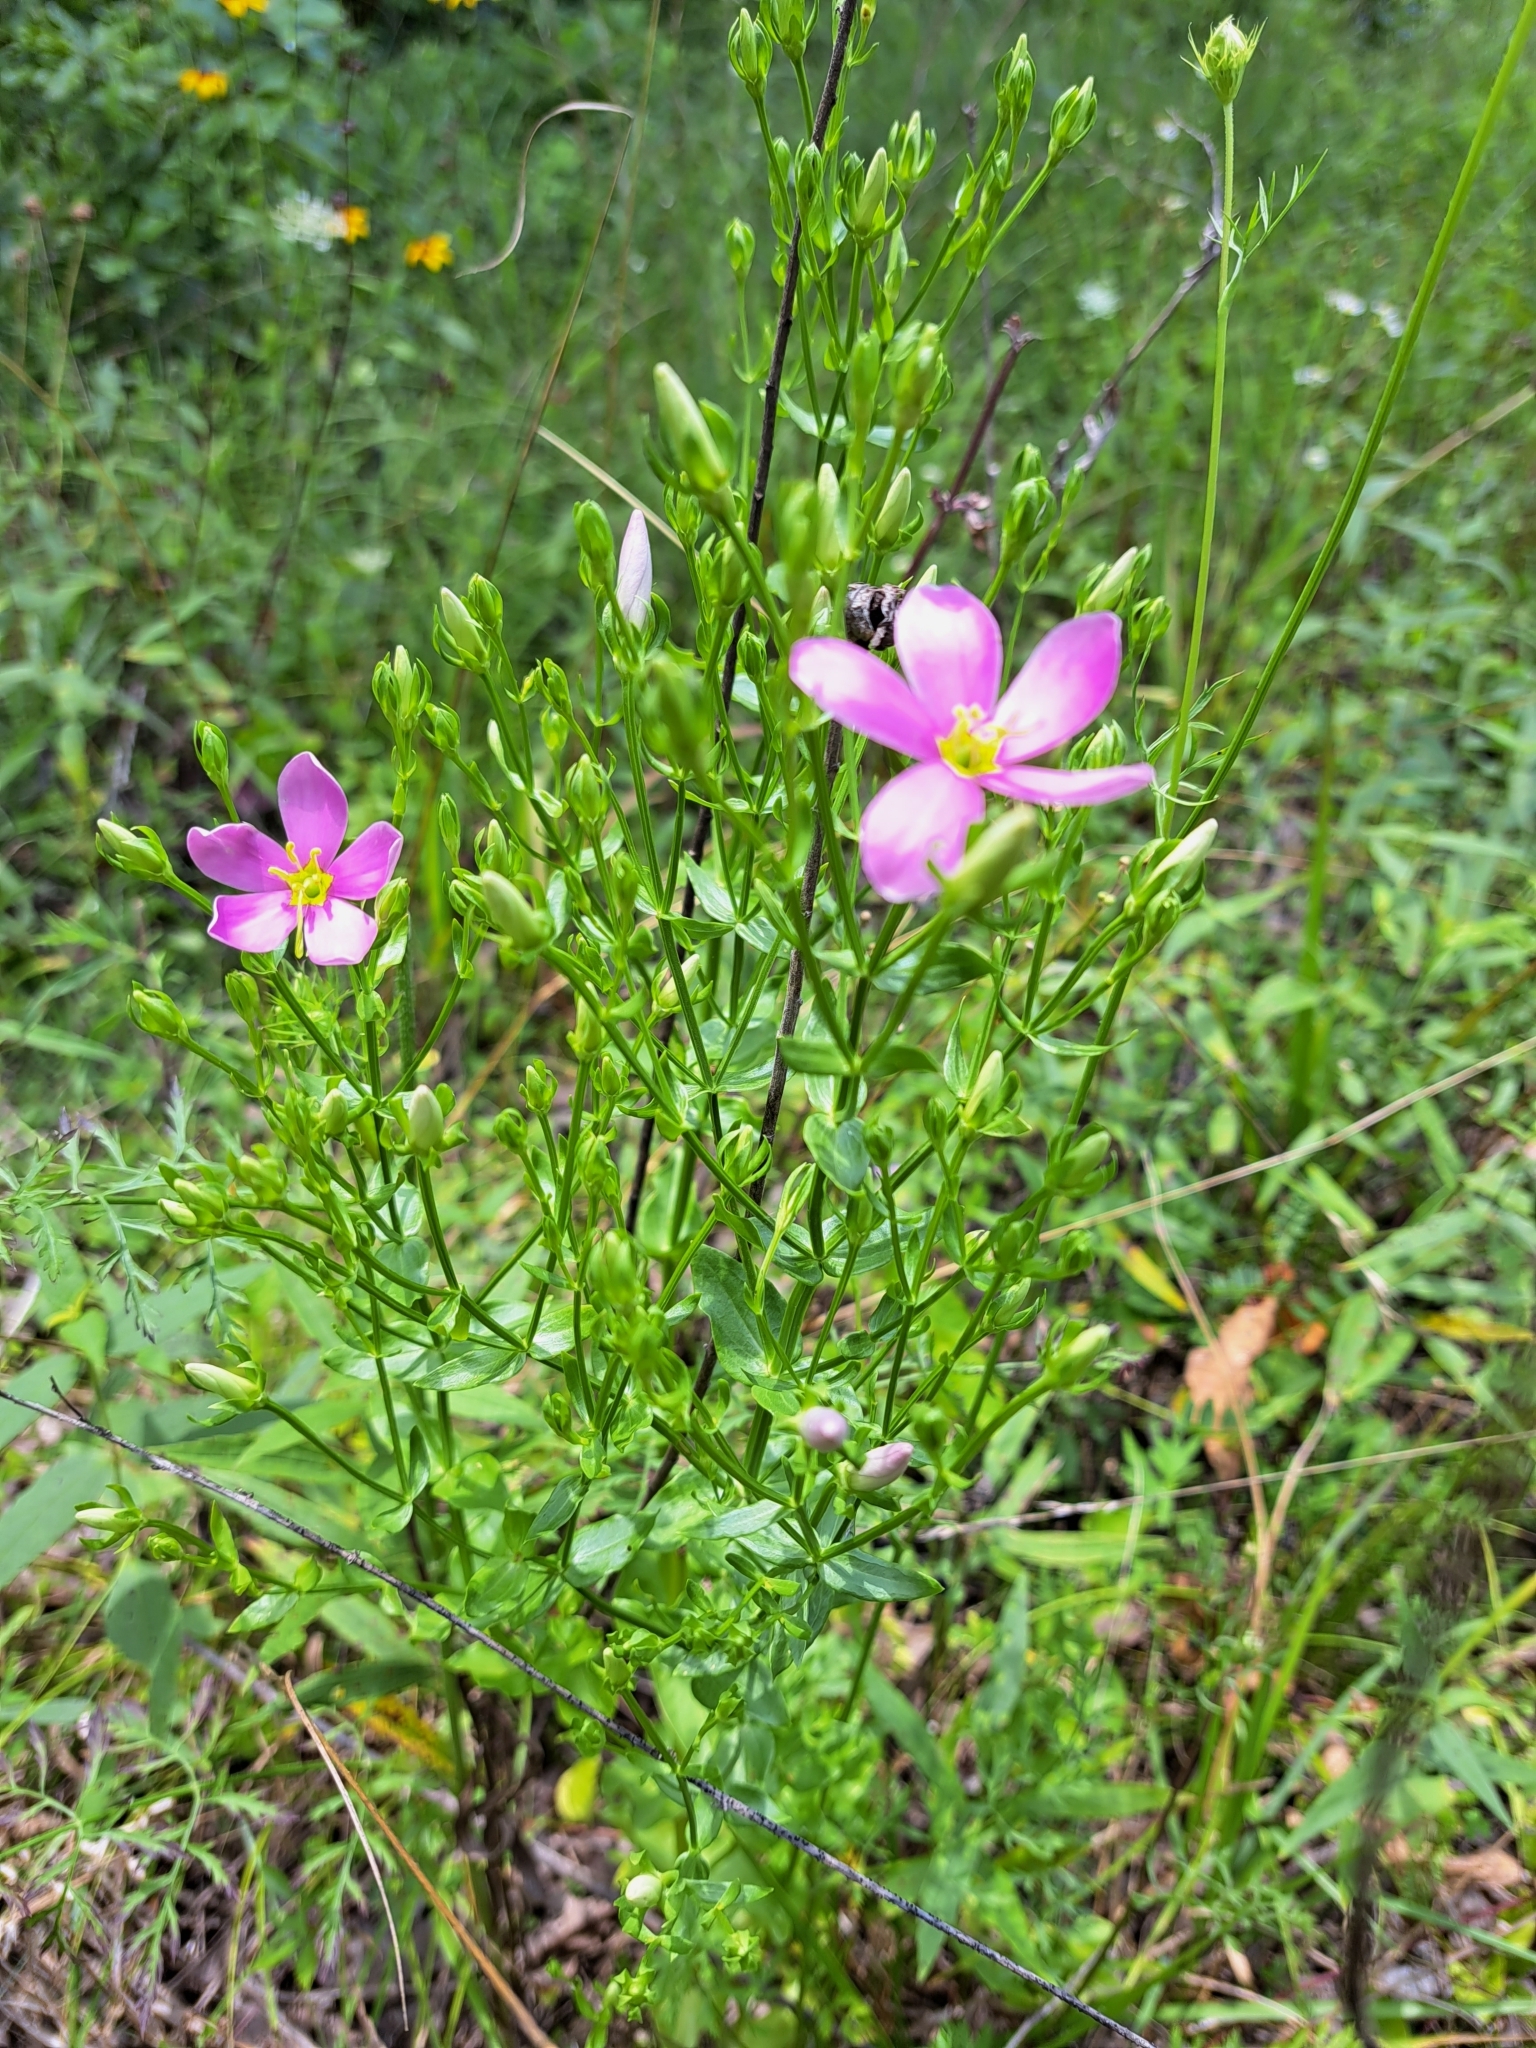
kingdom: Plantae
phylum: Tracheophyta
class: Magnoliopsida
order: Gentianales
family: Gentianaceae
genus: Sabatia
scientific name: Sabatia angularis
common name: Rose-pink
